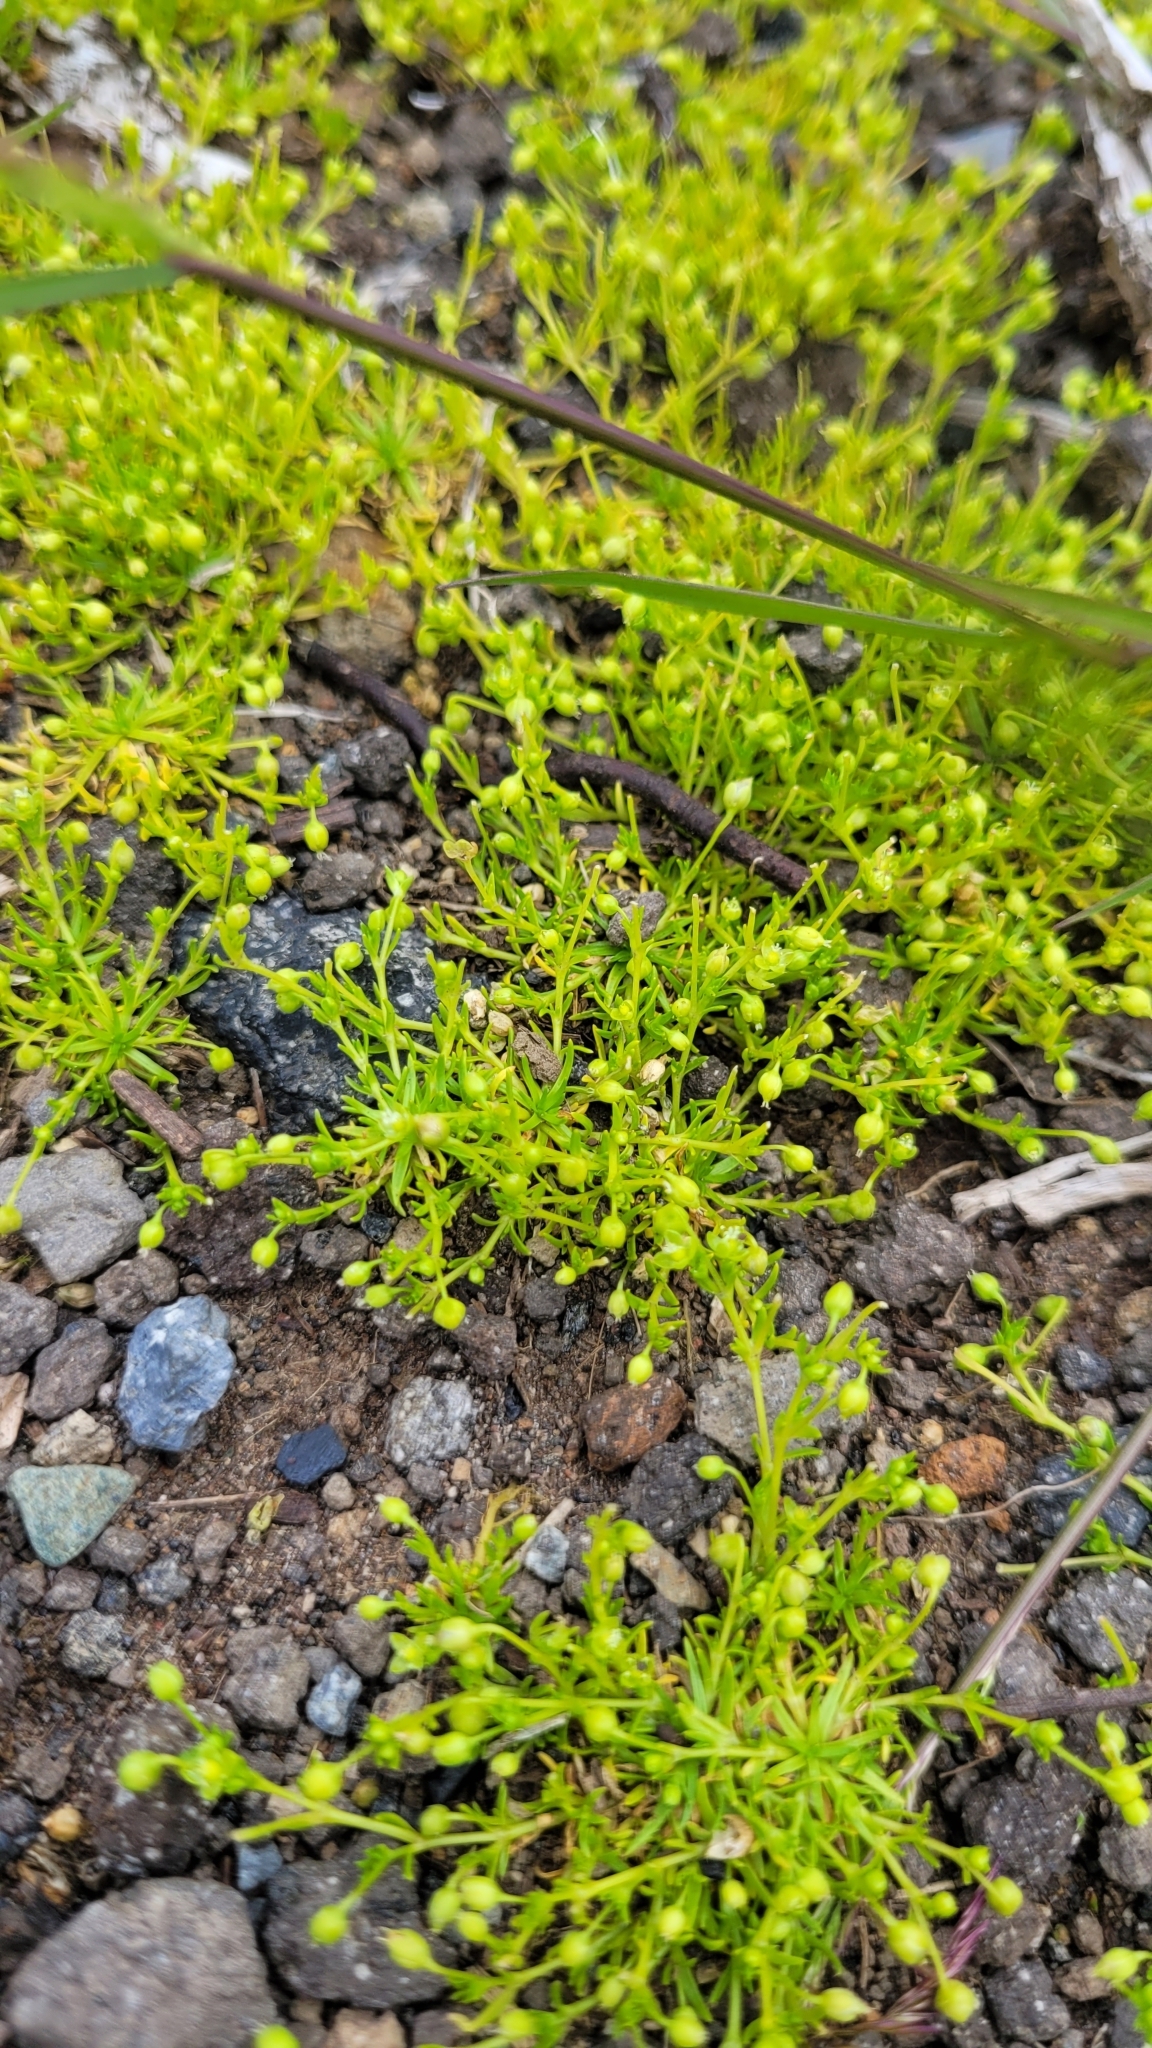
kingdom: Plantae
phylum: Tracheophyta
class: Magnoliopsida
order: Caryophyllales
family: Caryophyllaceae
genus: Sagina
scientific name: Sagina procumbens
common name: Procumbent pearlwort
